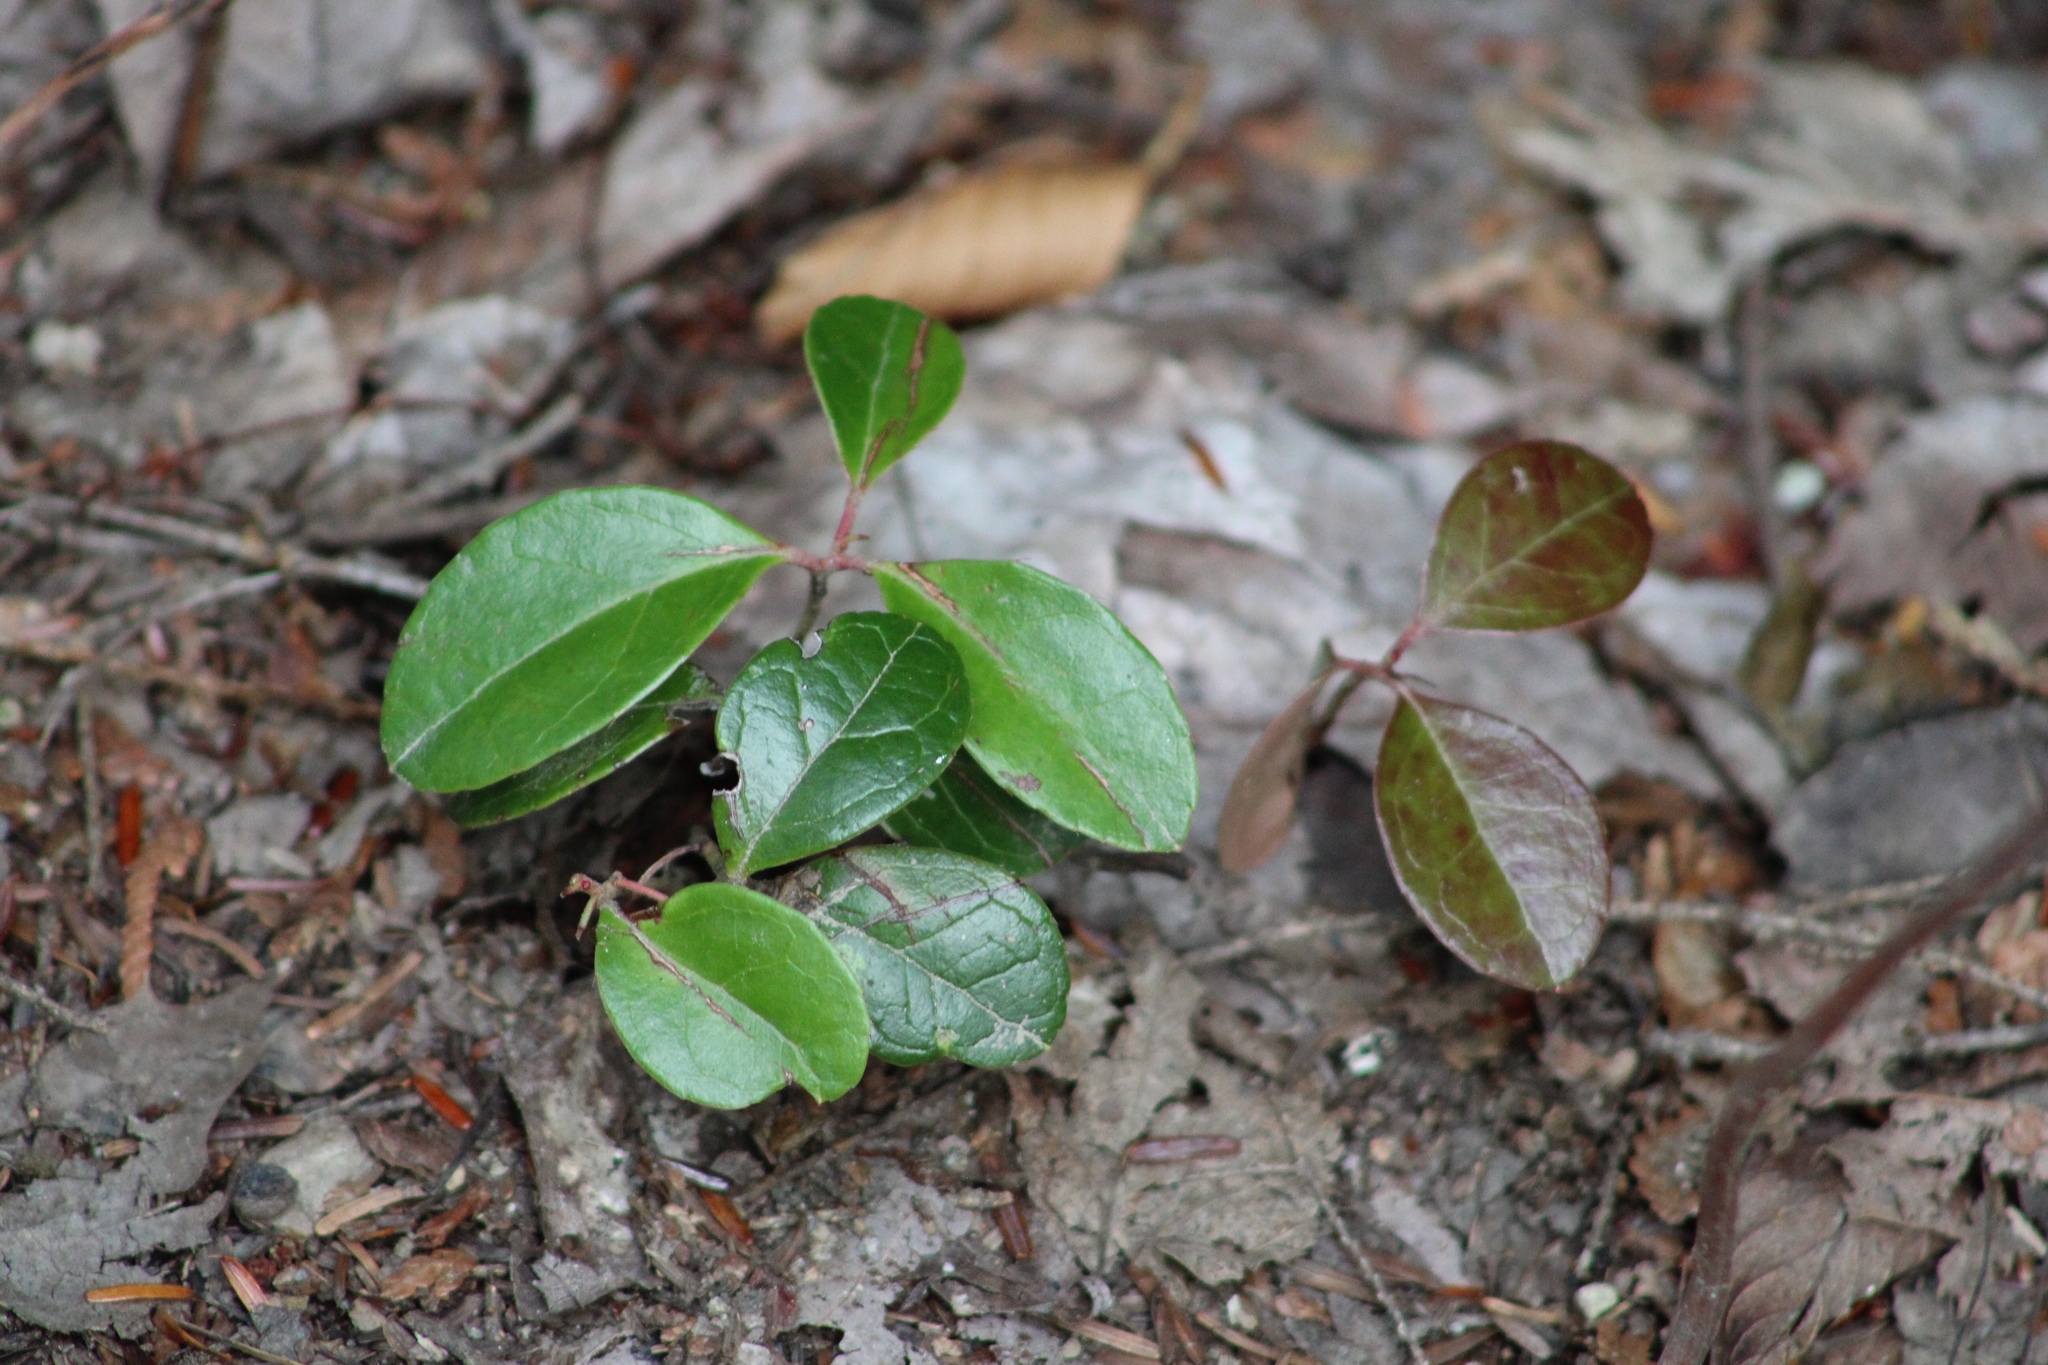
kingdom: Plantae
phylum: Tracheophyta
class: Magnoliopsida
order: Ericales
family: Ericaceae
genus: Gaultheria
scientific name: Gaultheria procumbens
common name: Checkerberry
